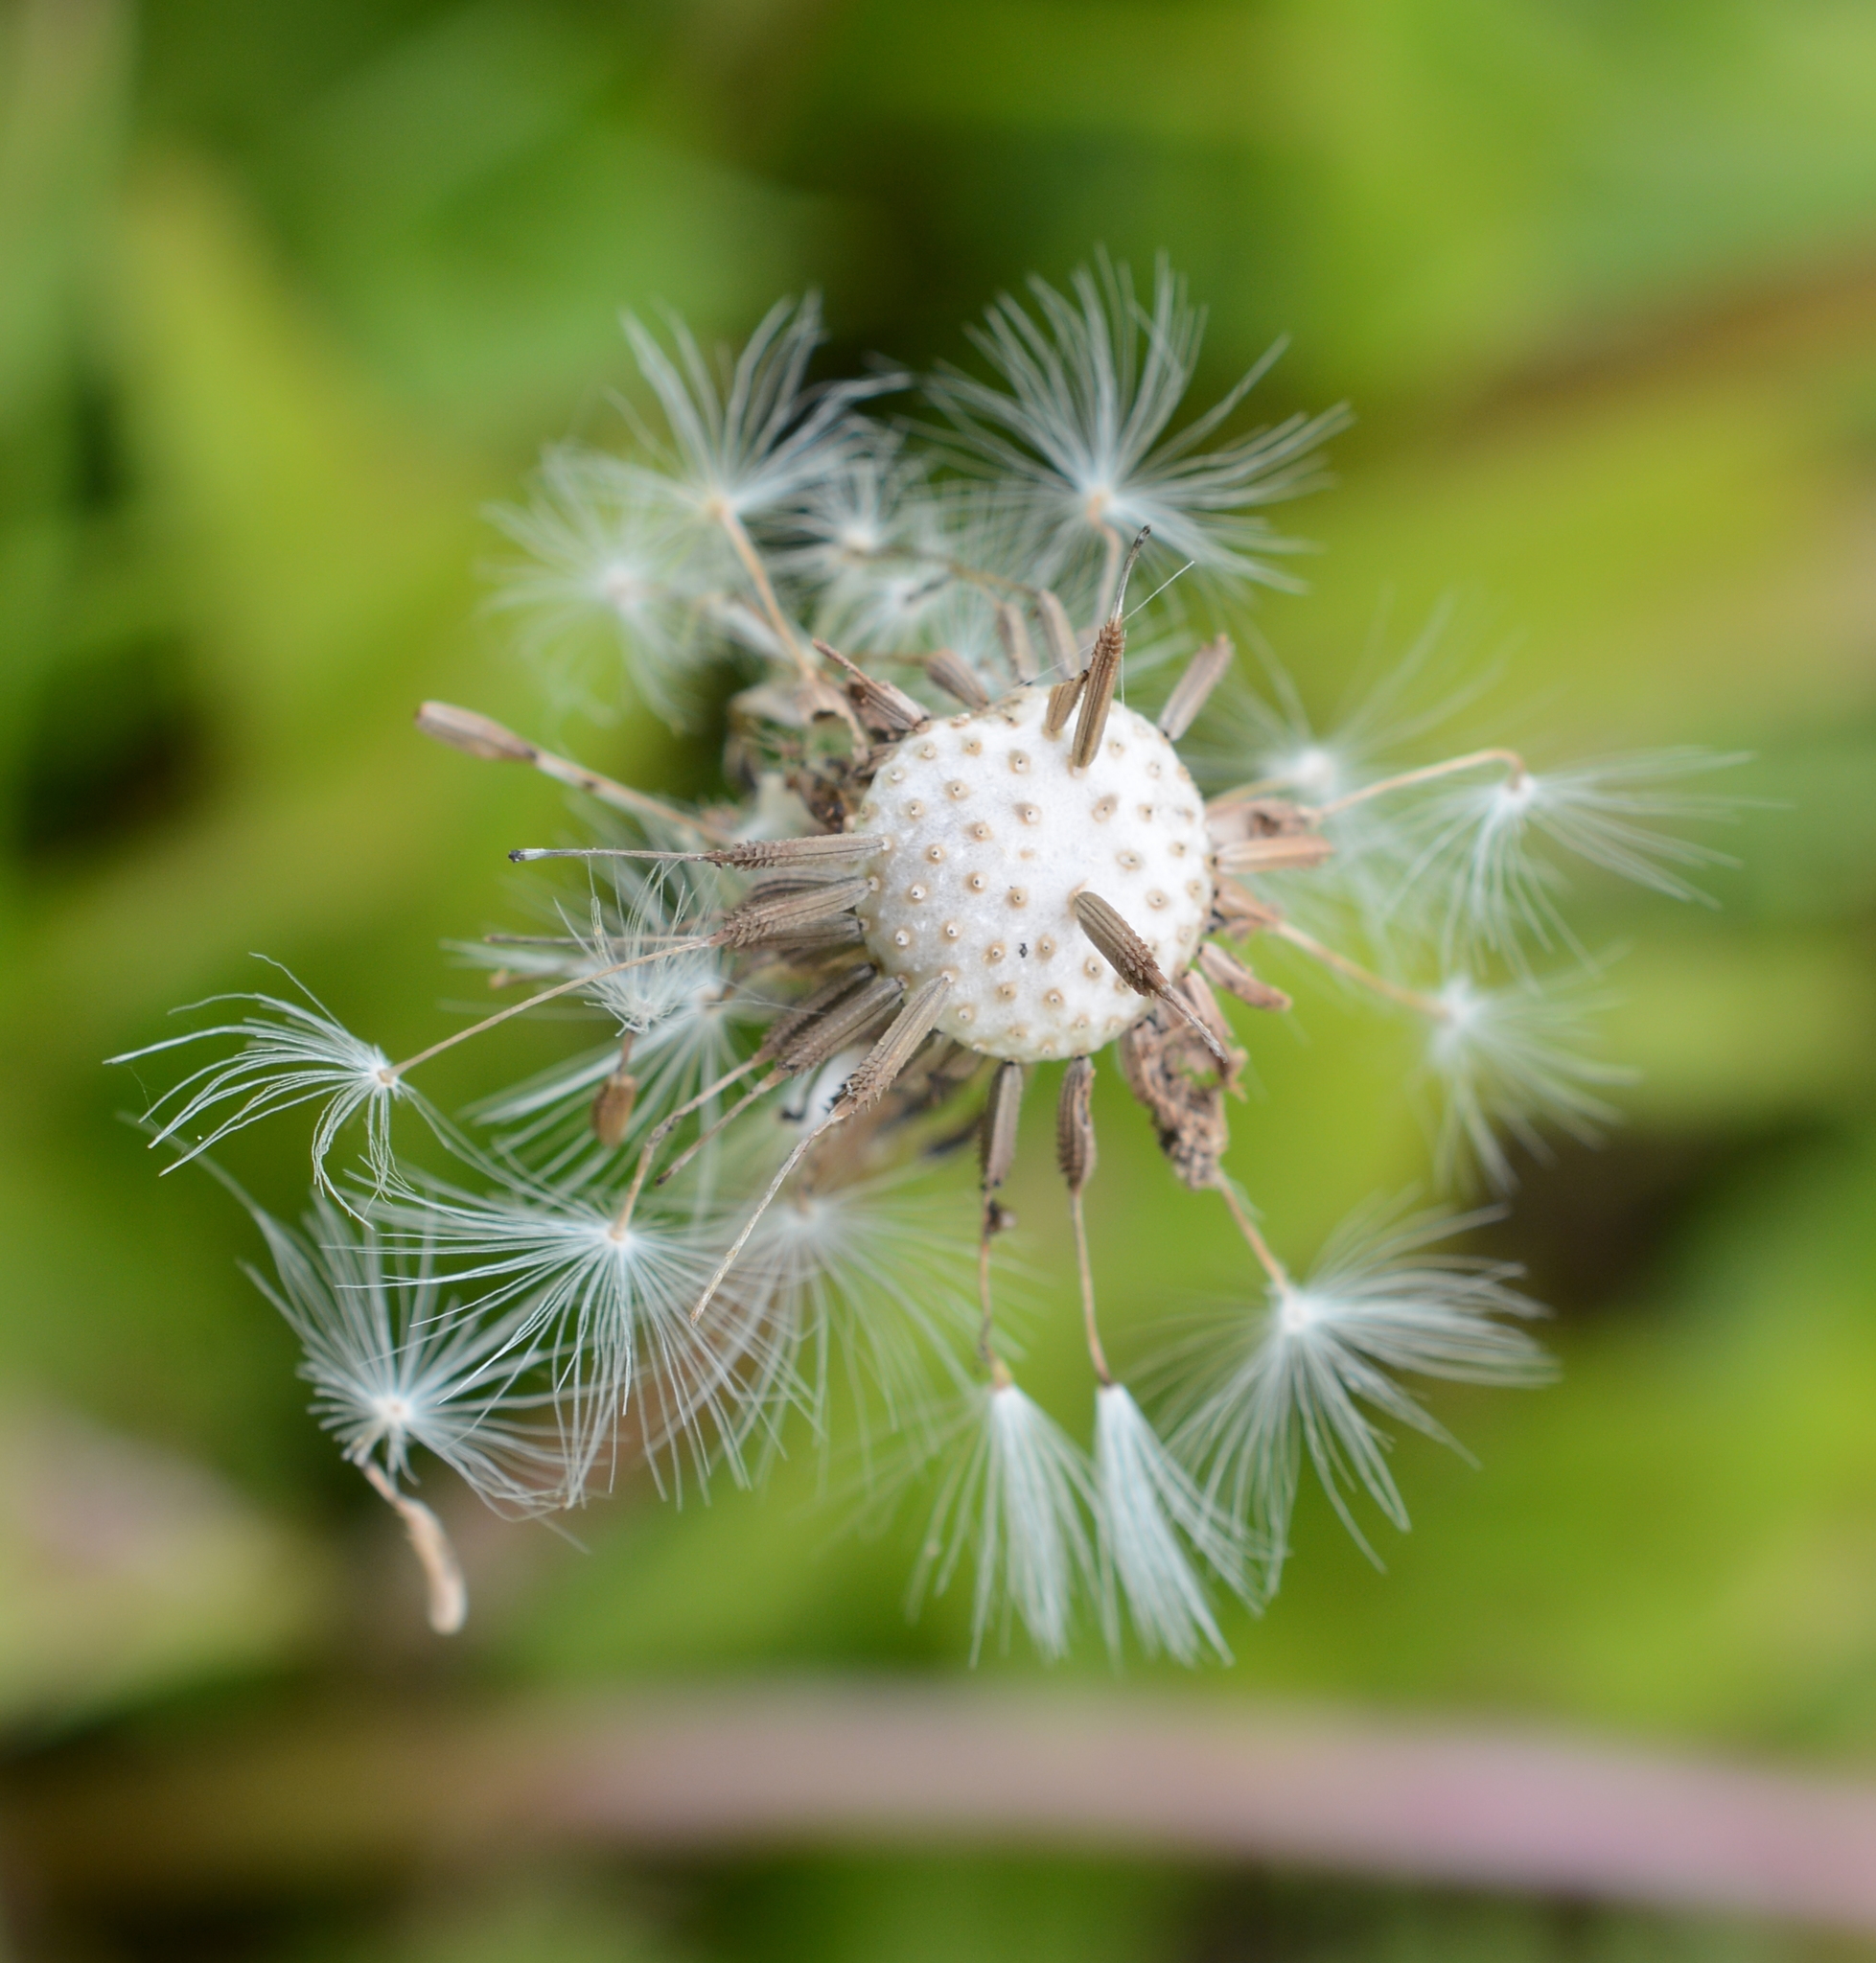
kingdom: Plantae
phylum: Tracheophyta
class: Magnoliopsida
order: Asterales
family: Asteraceae
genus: Taraxacum
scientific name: Taraxacum officinale
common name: Common dandelion
